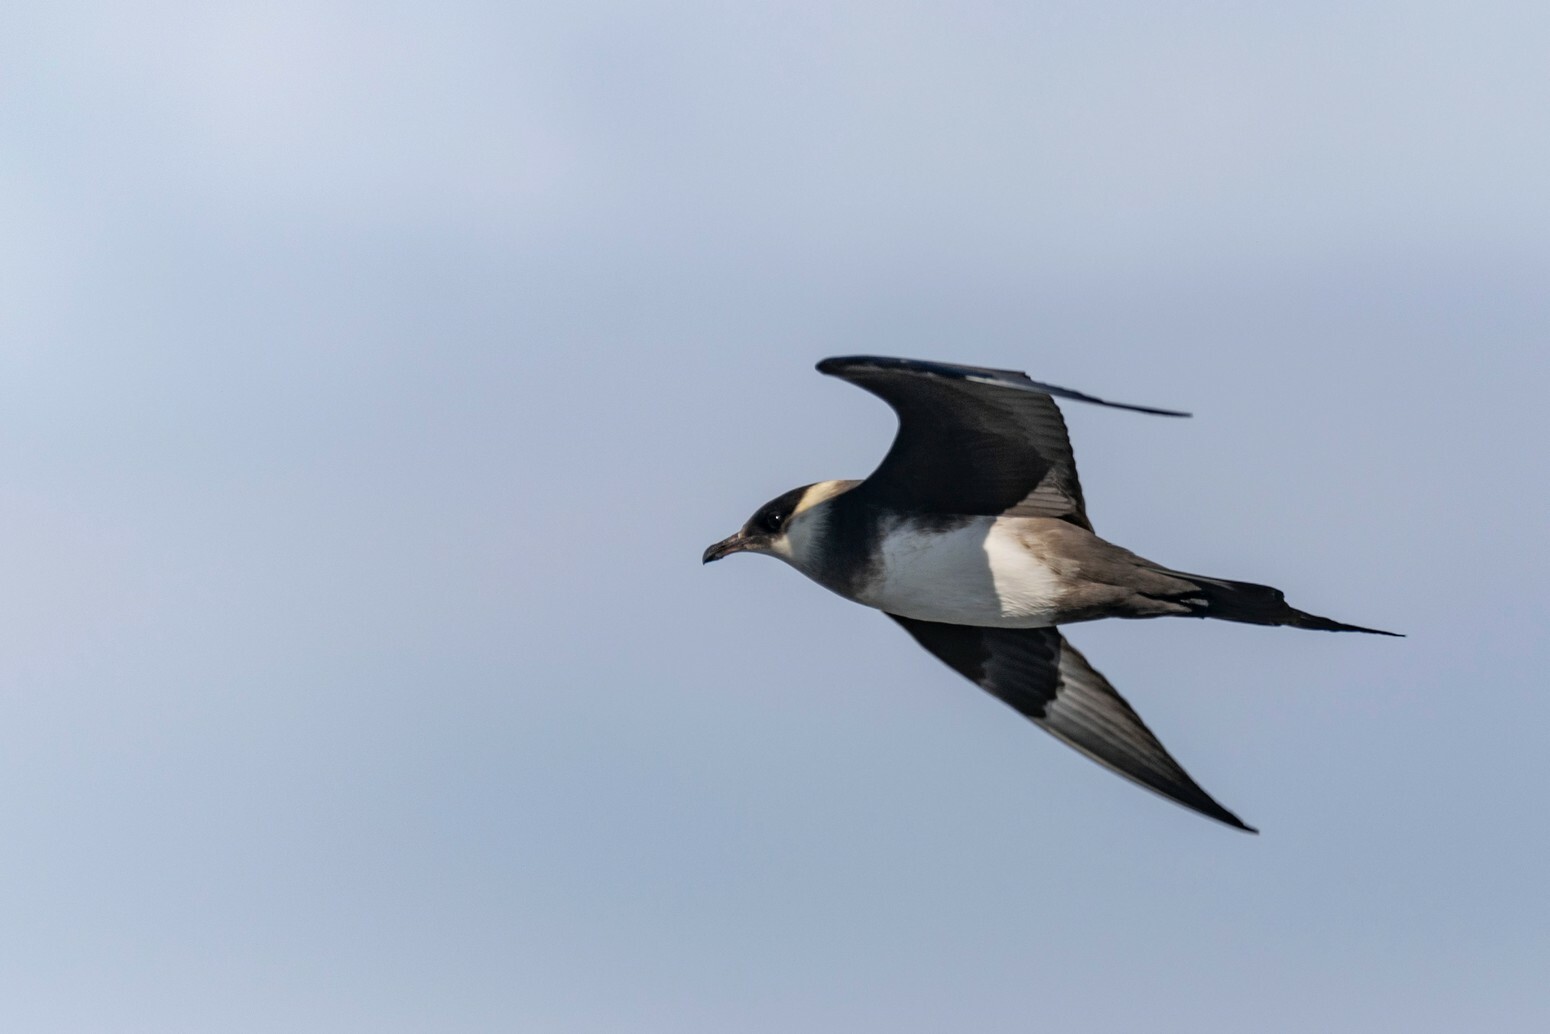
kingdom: Animalia
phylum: Chordata
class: Aves
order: Charadriiformes
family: Stercorariidae
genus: Stercorarius
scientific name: Stercorarius parasiticus
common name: Parasitic jaeger
